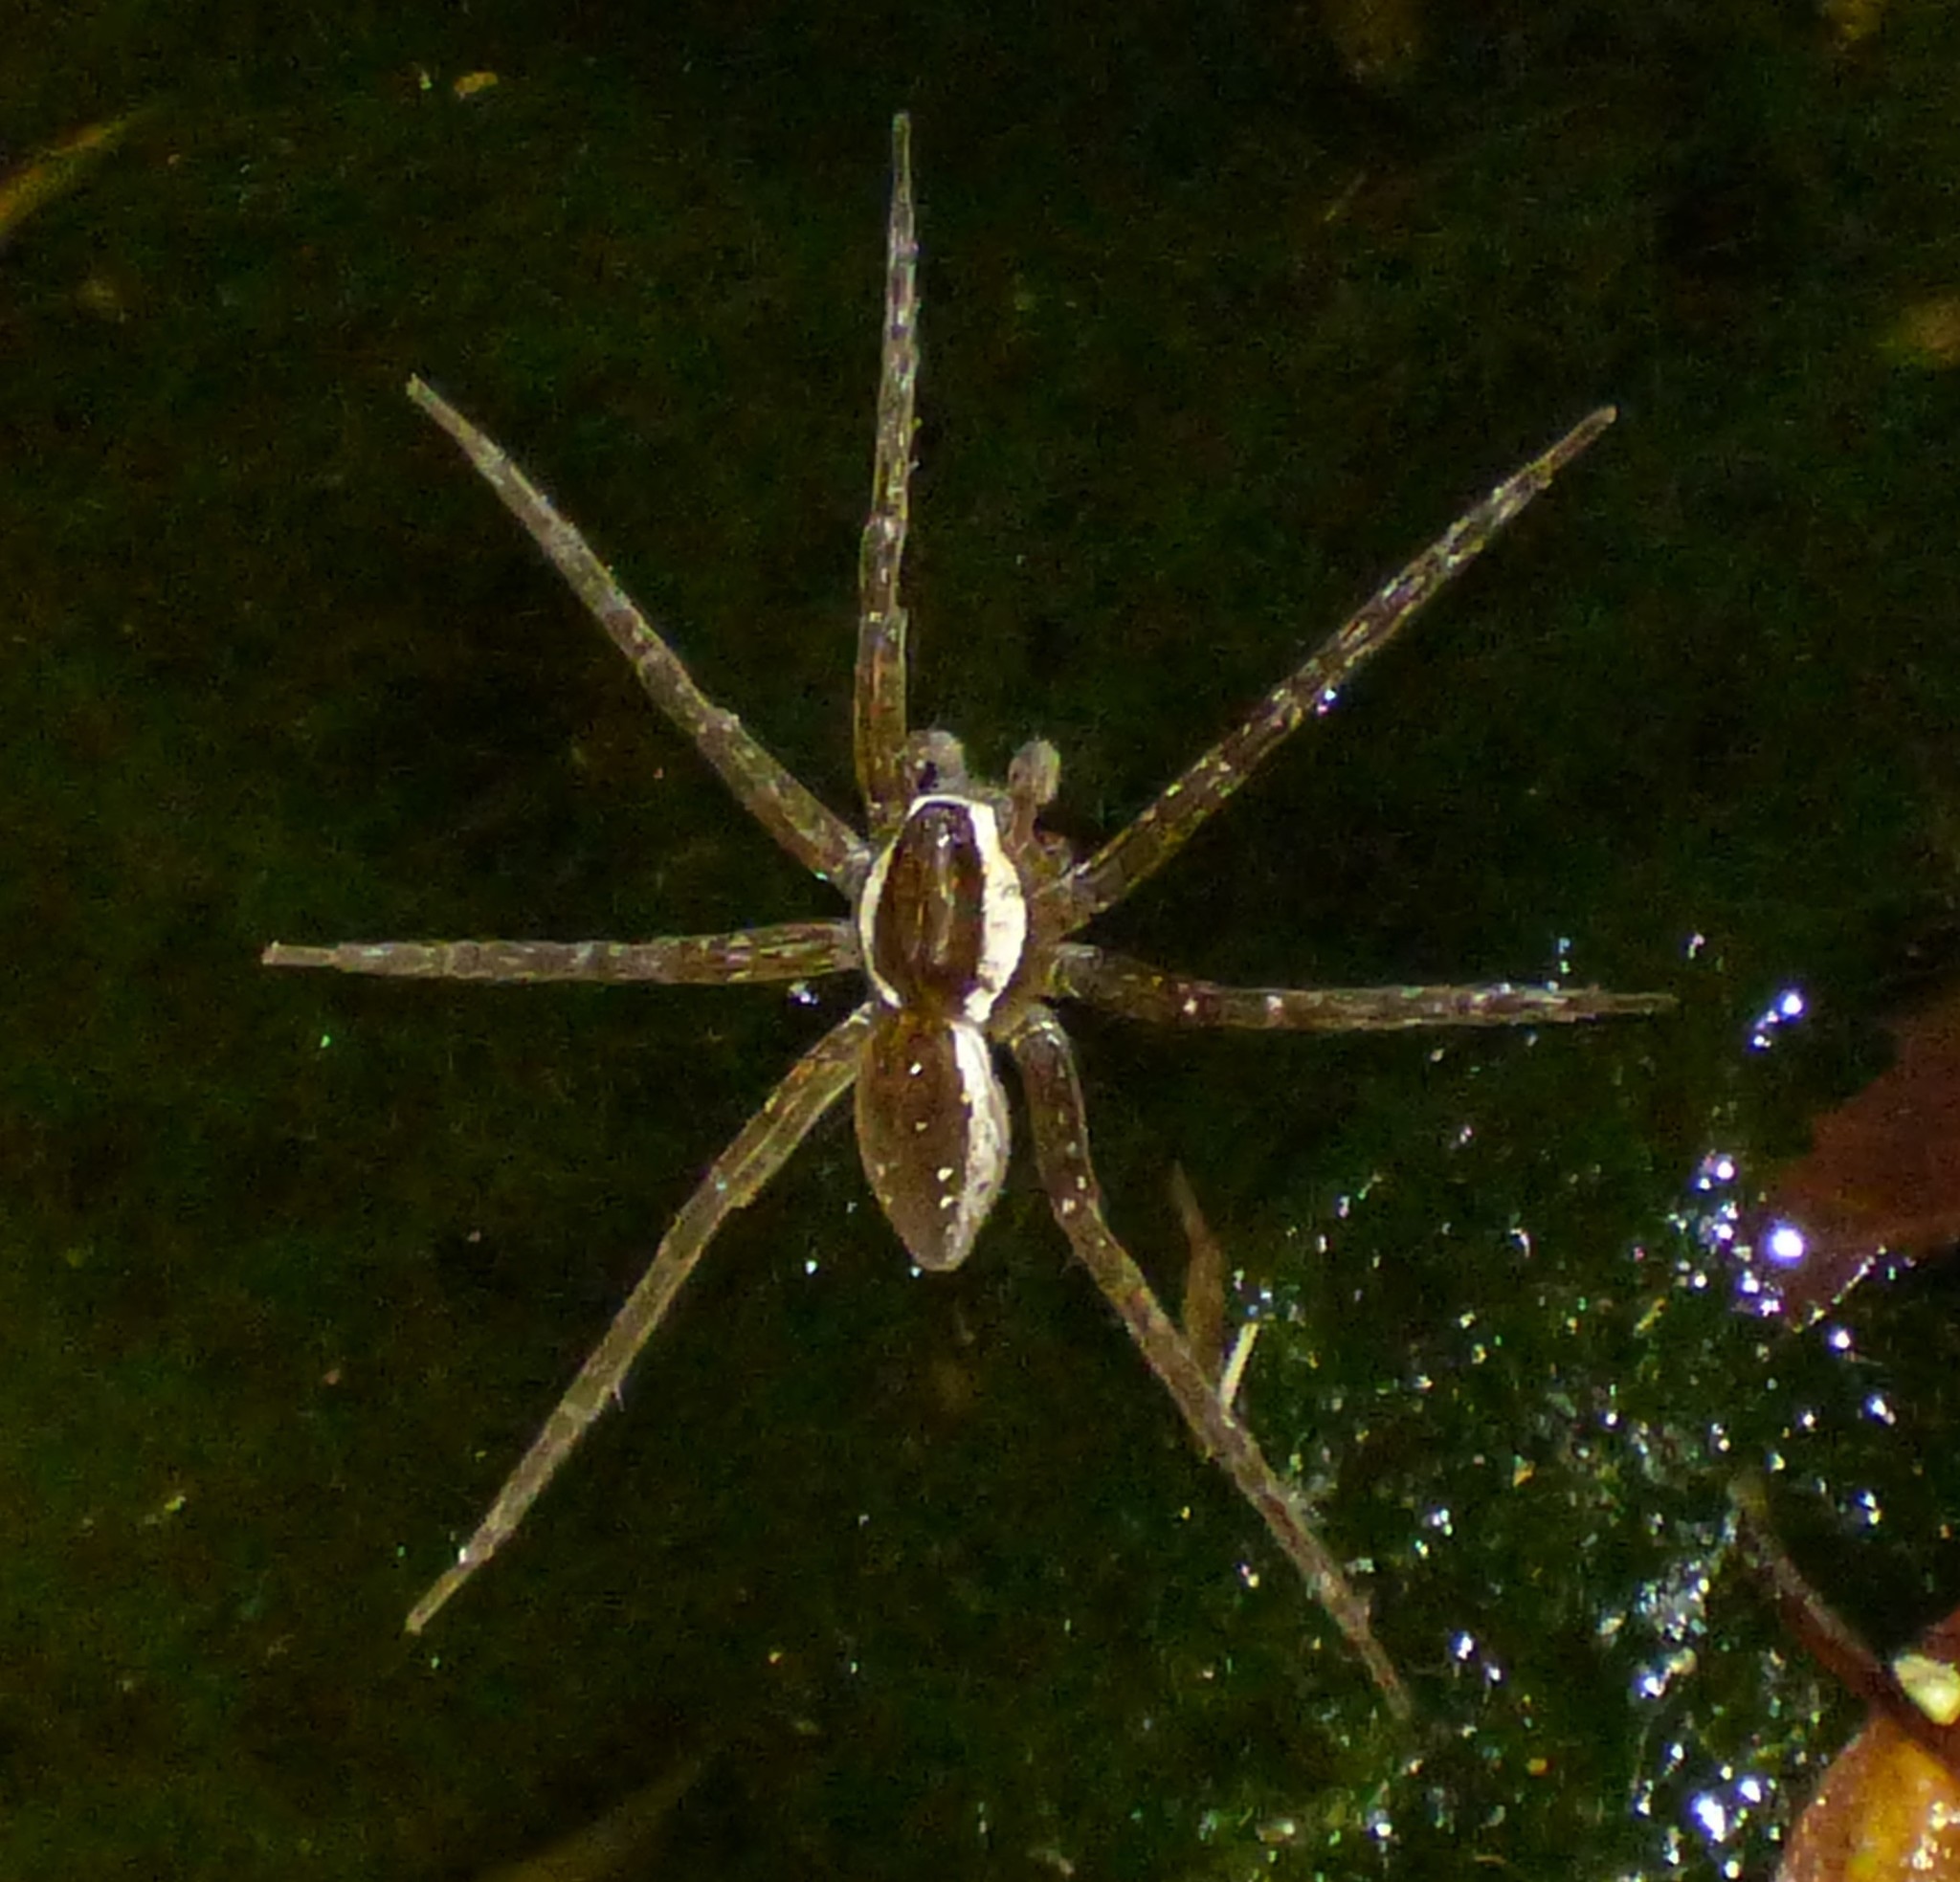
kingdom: Animalia
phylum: Arthropoda
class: Arachnida
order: Araneae
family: Pisauridae
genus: Dolomedes
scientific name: Dolomedes triton
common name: Six-spotted fishing spider
